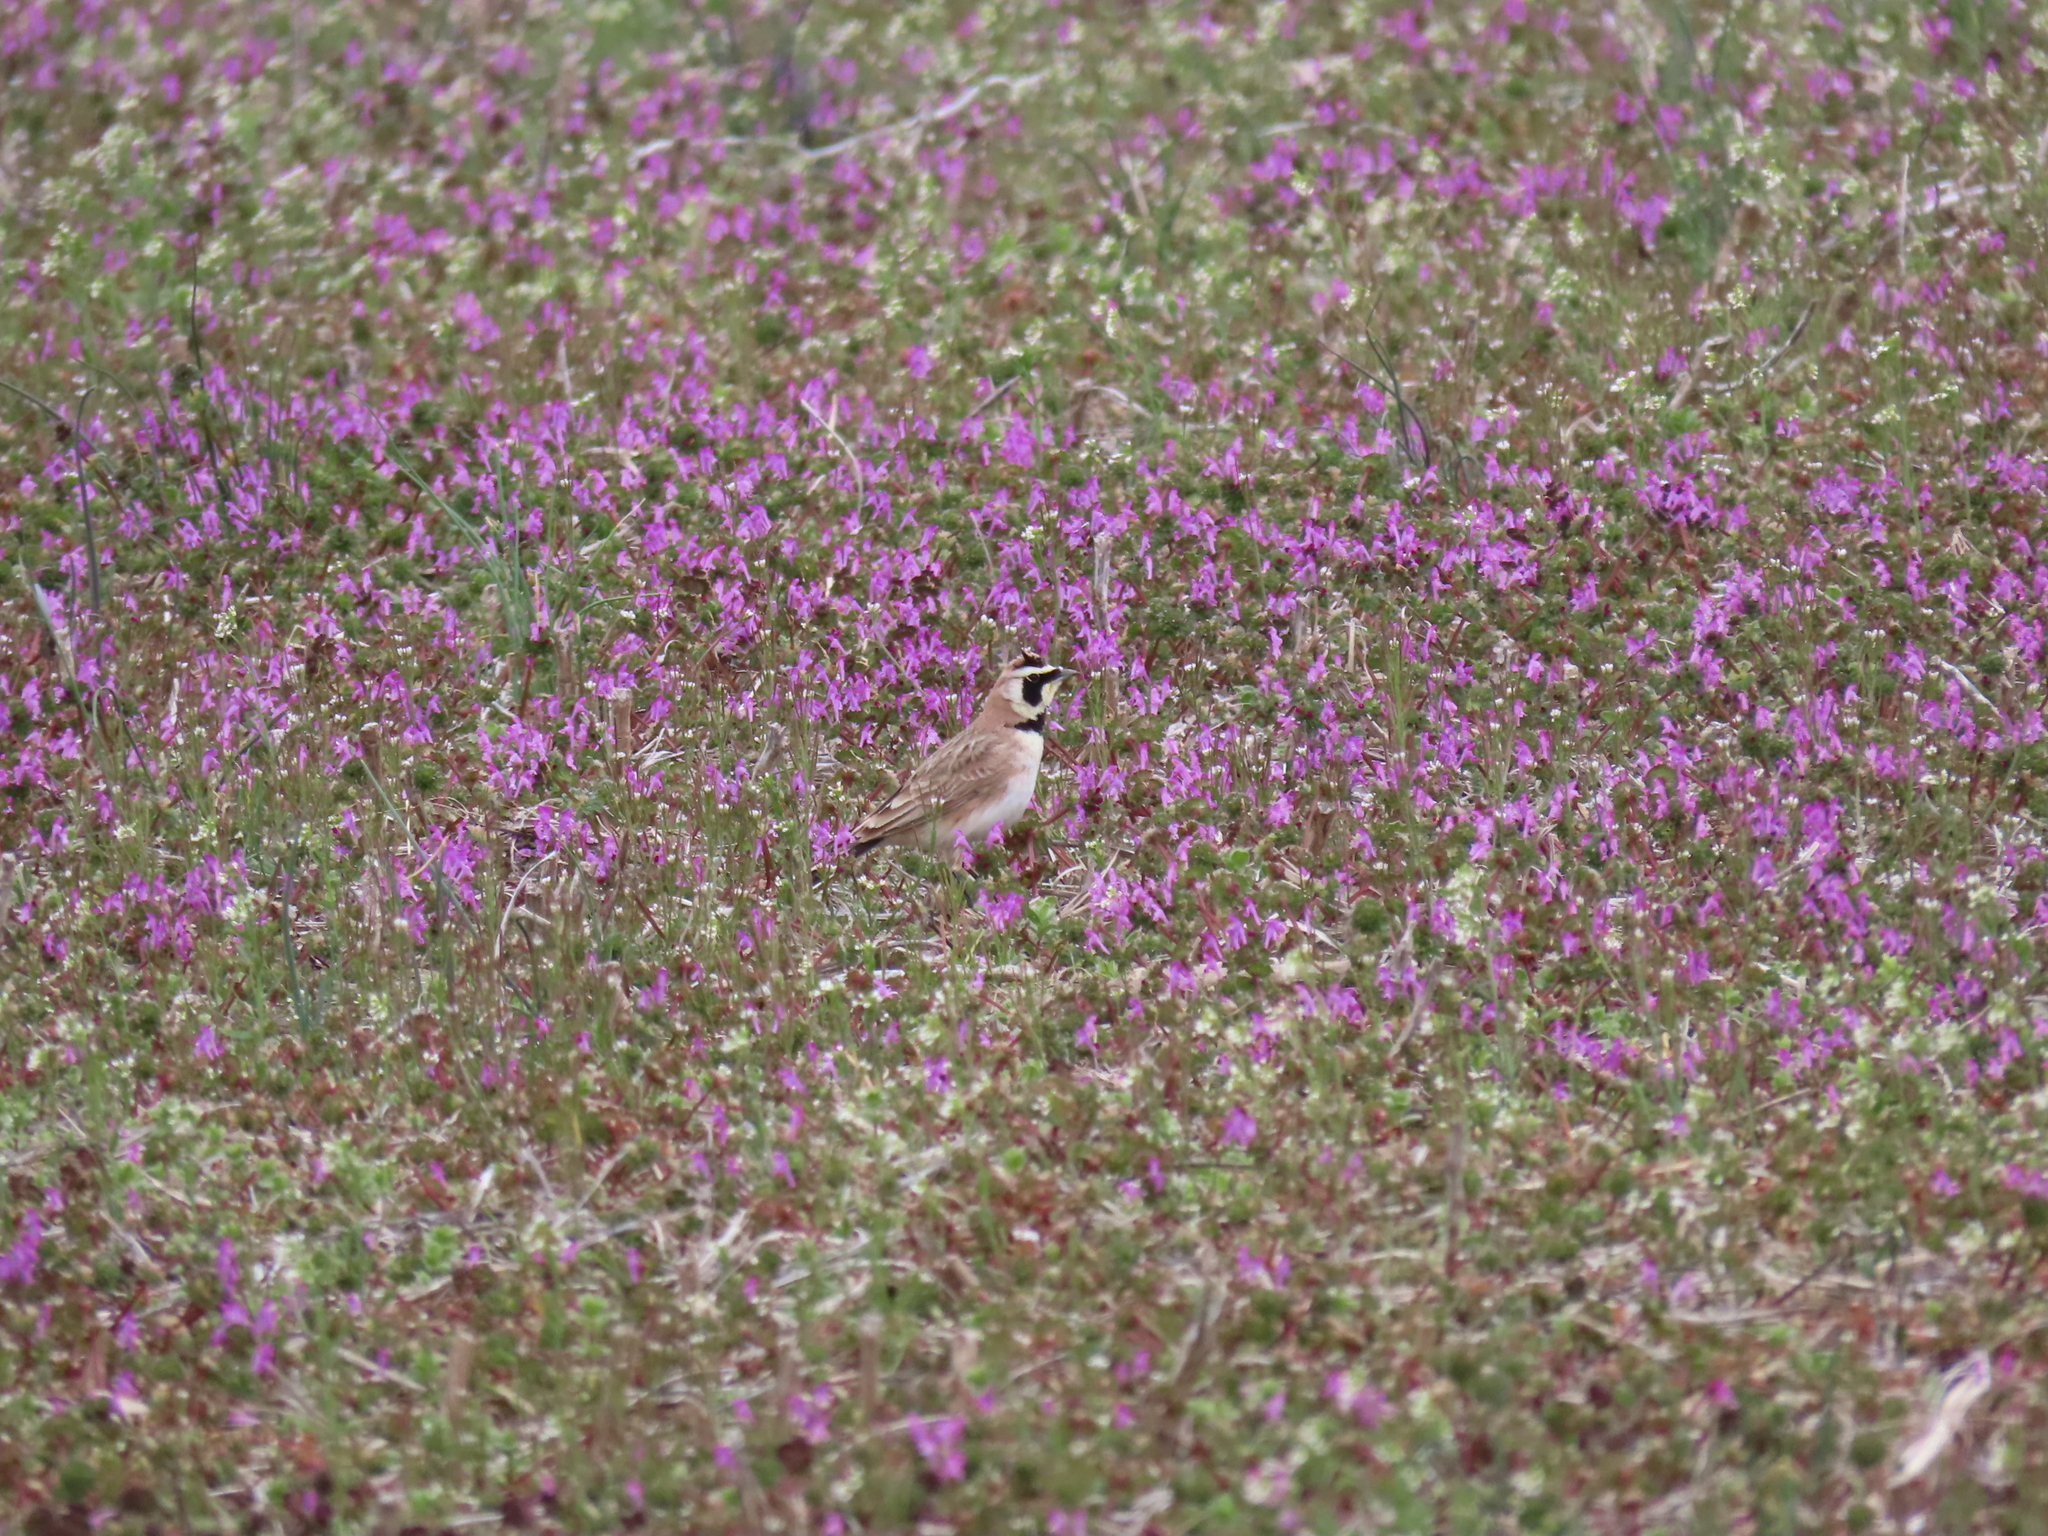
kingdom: Animalia
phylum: Chordata
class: Aves
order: Passeriformes
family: Alaudidae
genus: Eremophila
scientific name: Eremophila alpestris
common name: Horned lark
